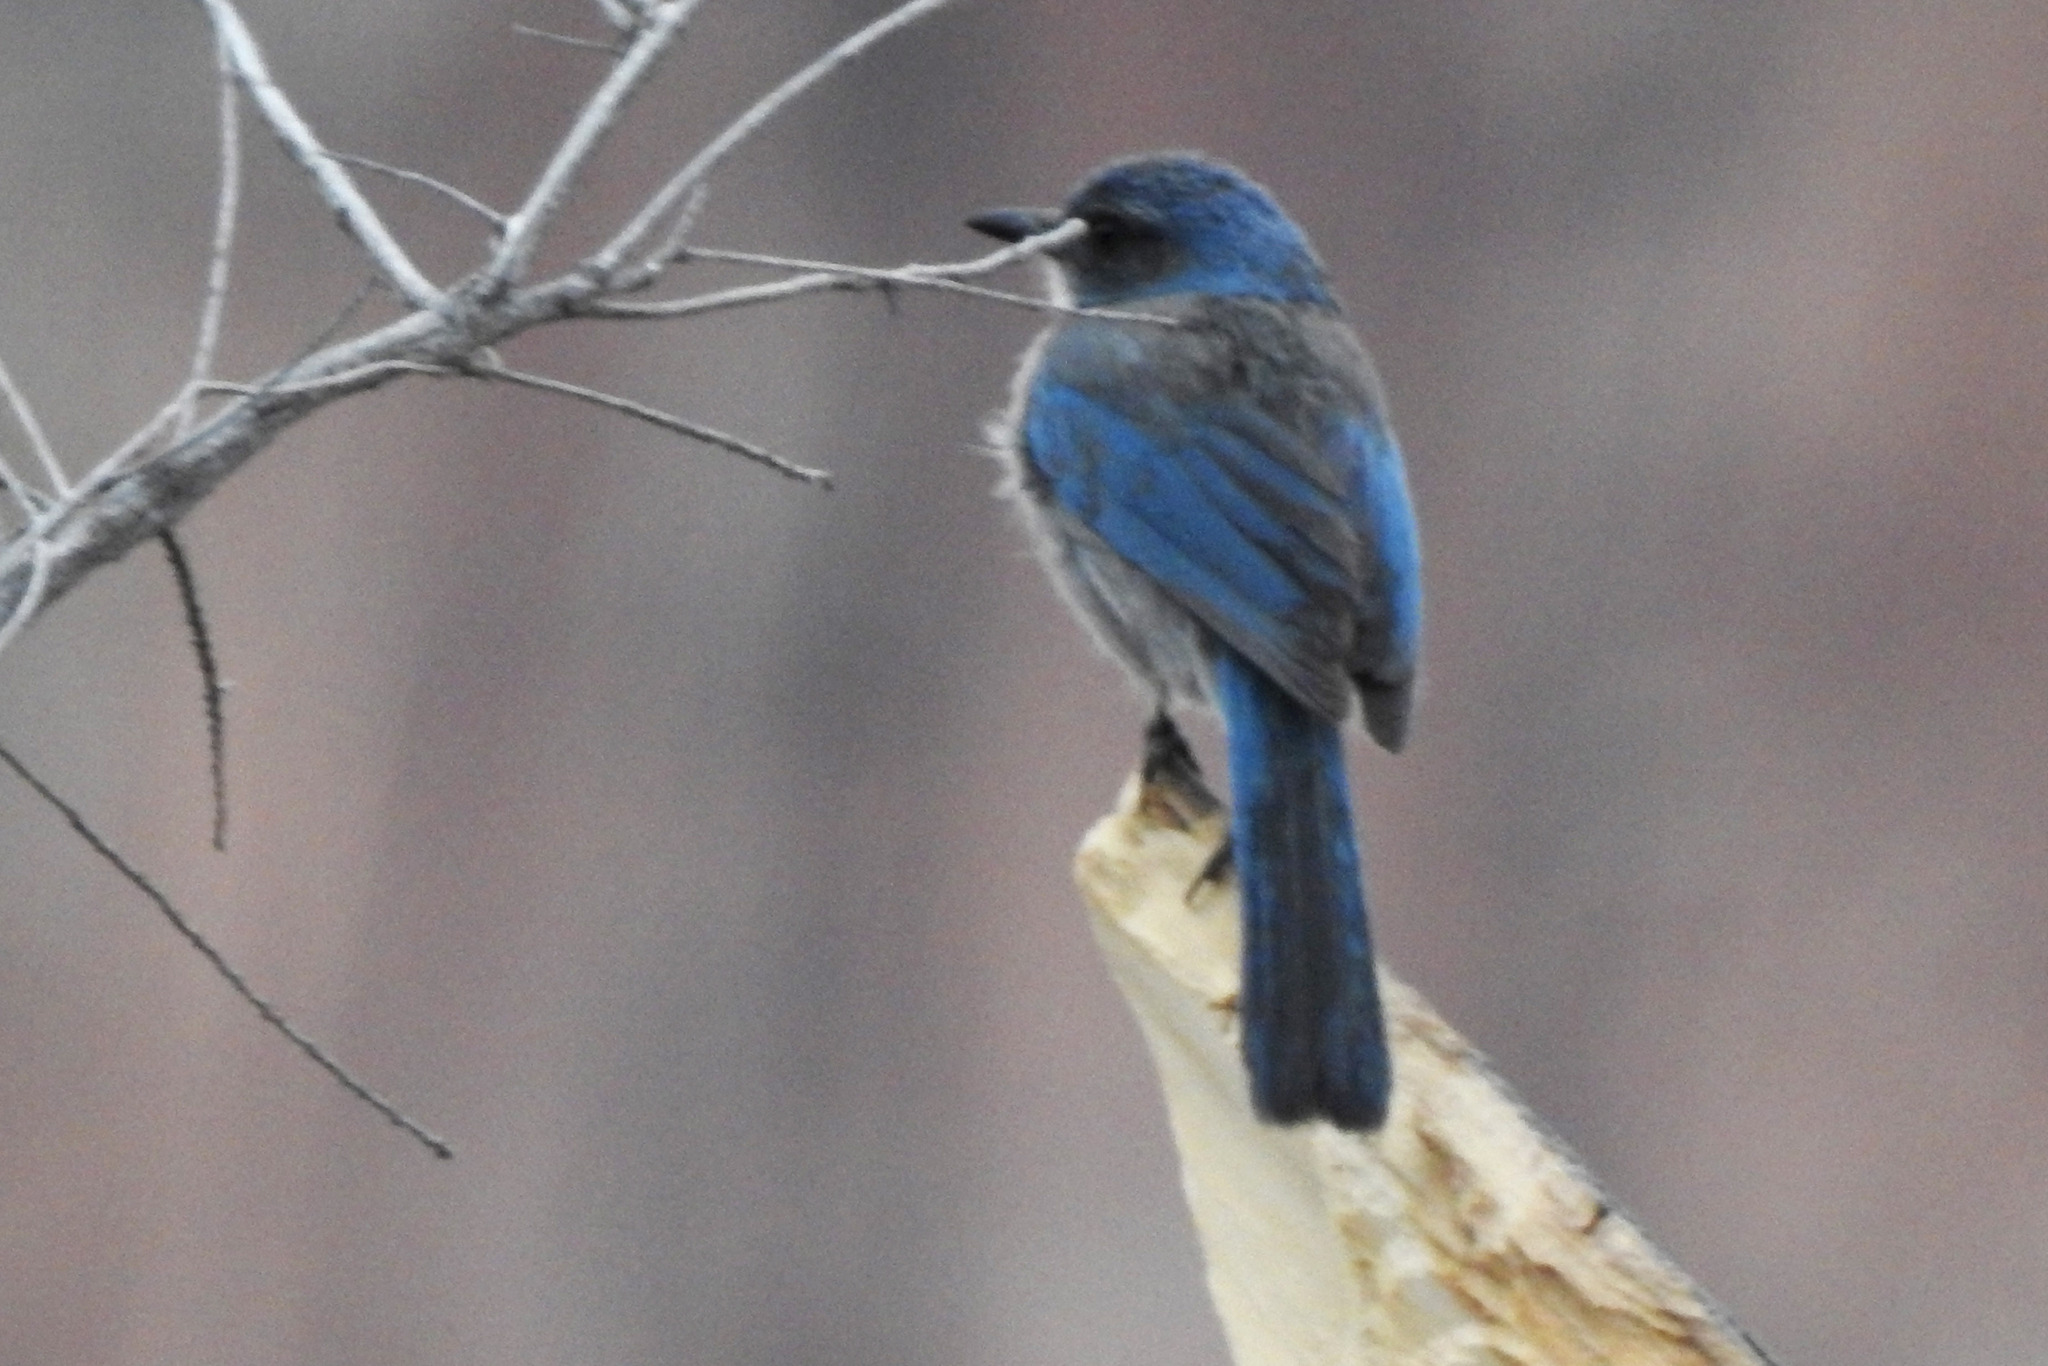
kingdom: Animalia
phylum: Chordata
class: Aves
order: Passeriformes
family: Corvidae
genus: Aphelocoma
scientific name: Aphelocoma woodhouseii
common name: Woodhouse's scrub-jay
